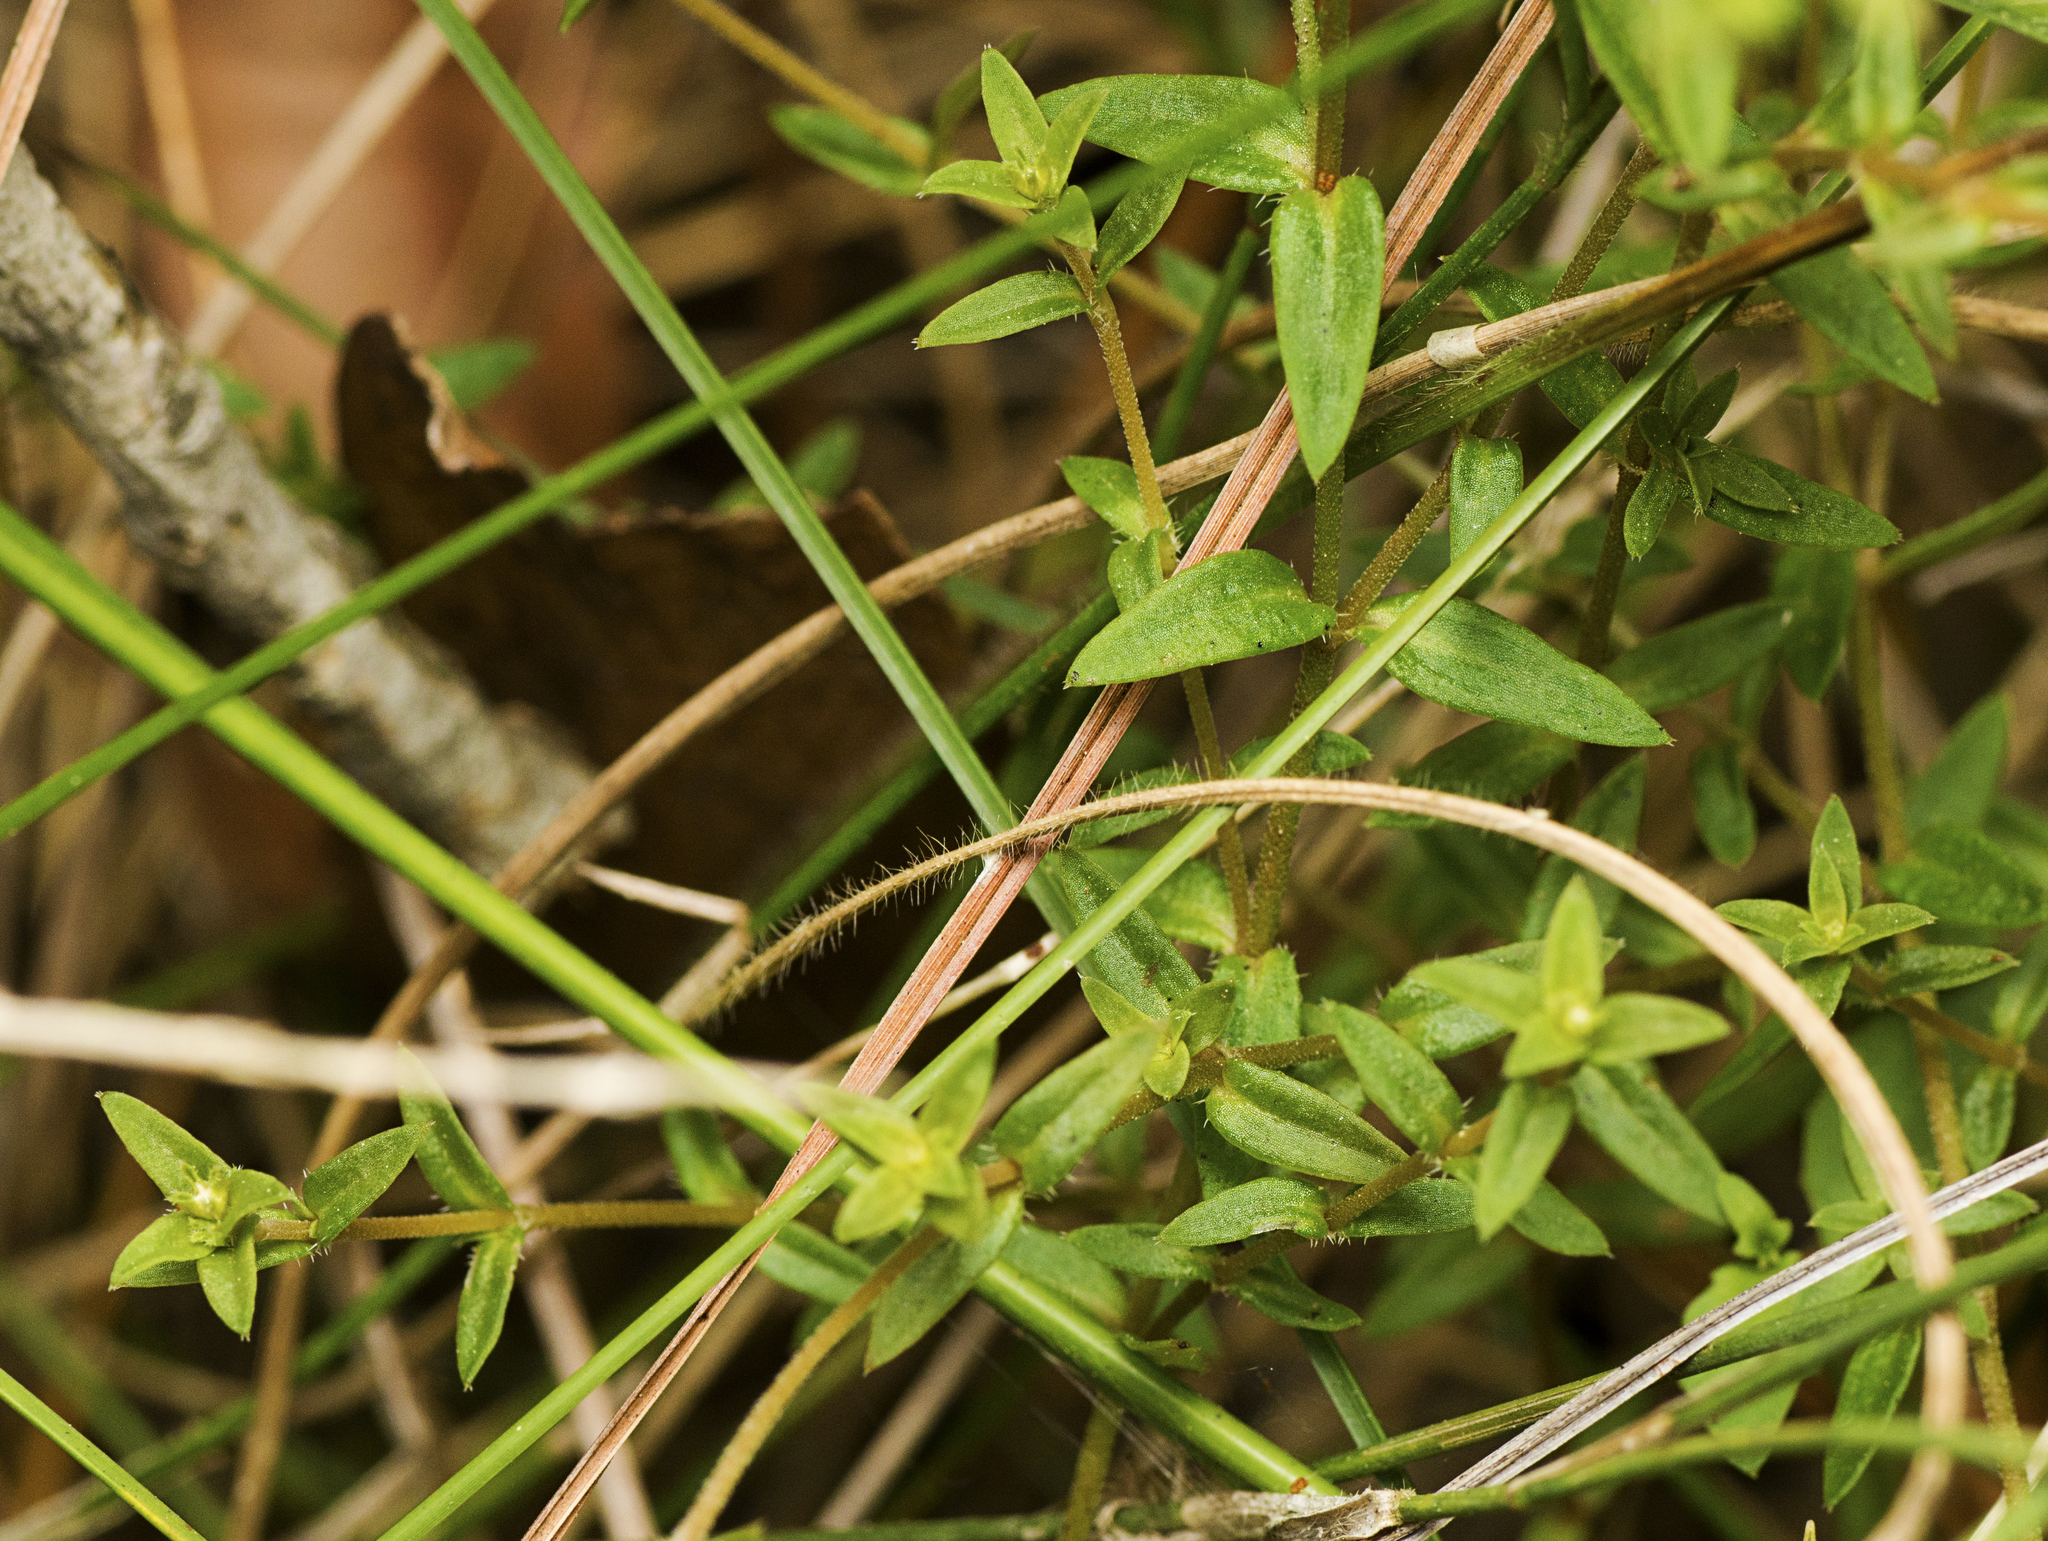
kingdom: Plantae
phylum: Tracheophyta
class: Magnoliopsida
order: Gentianales
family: Loganiaceae
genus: Mitrasacme
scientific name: Mitrasacme paludosa
